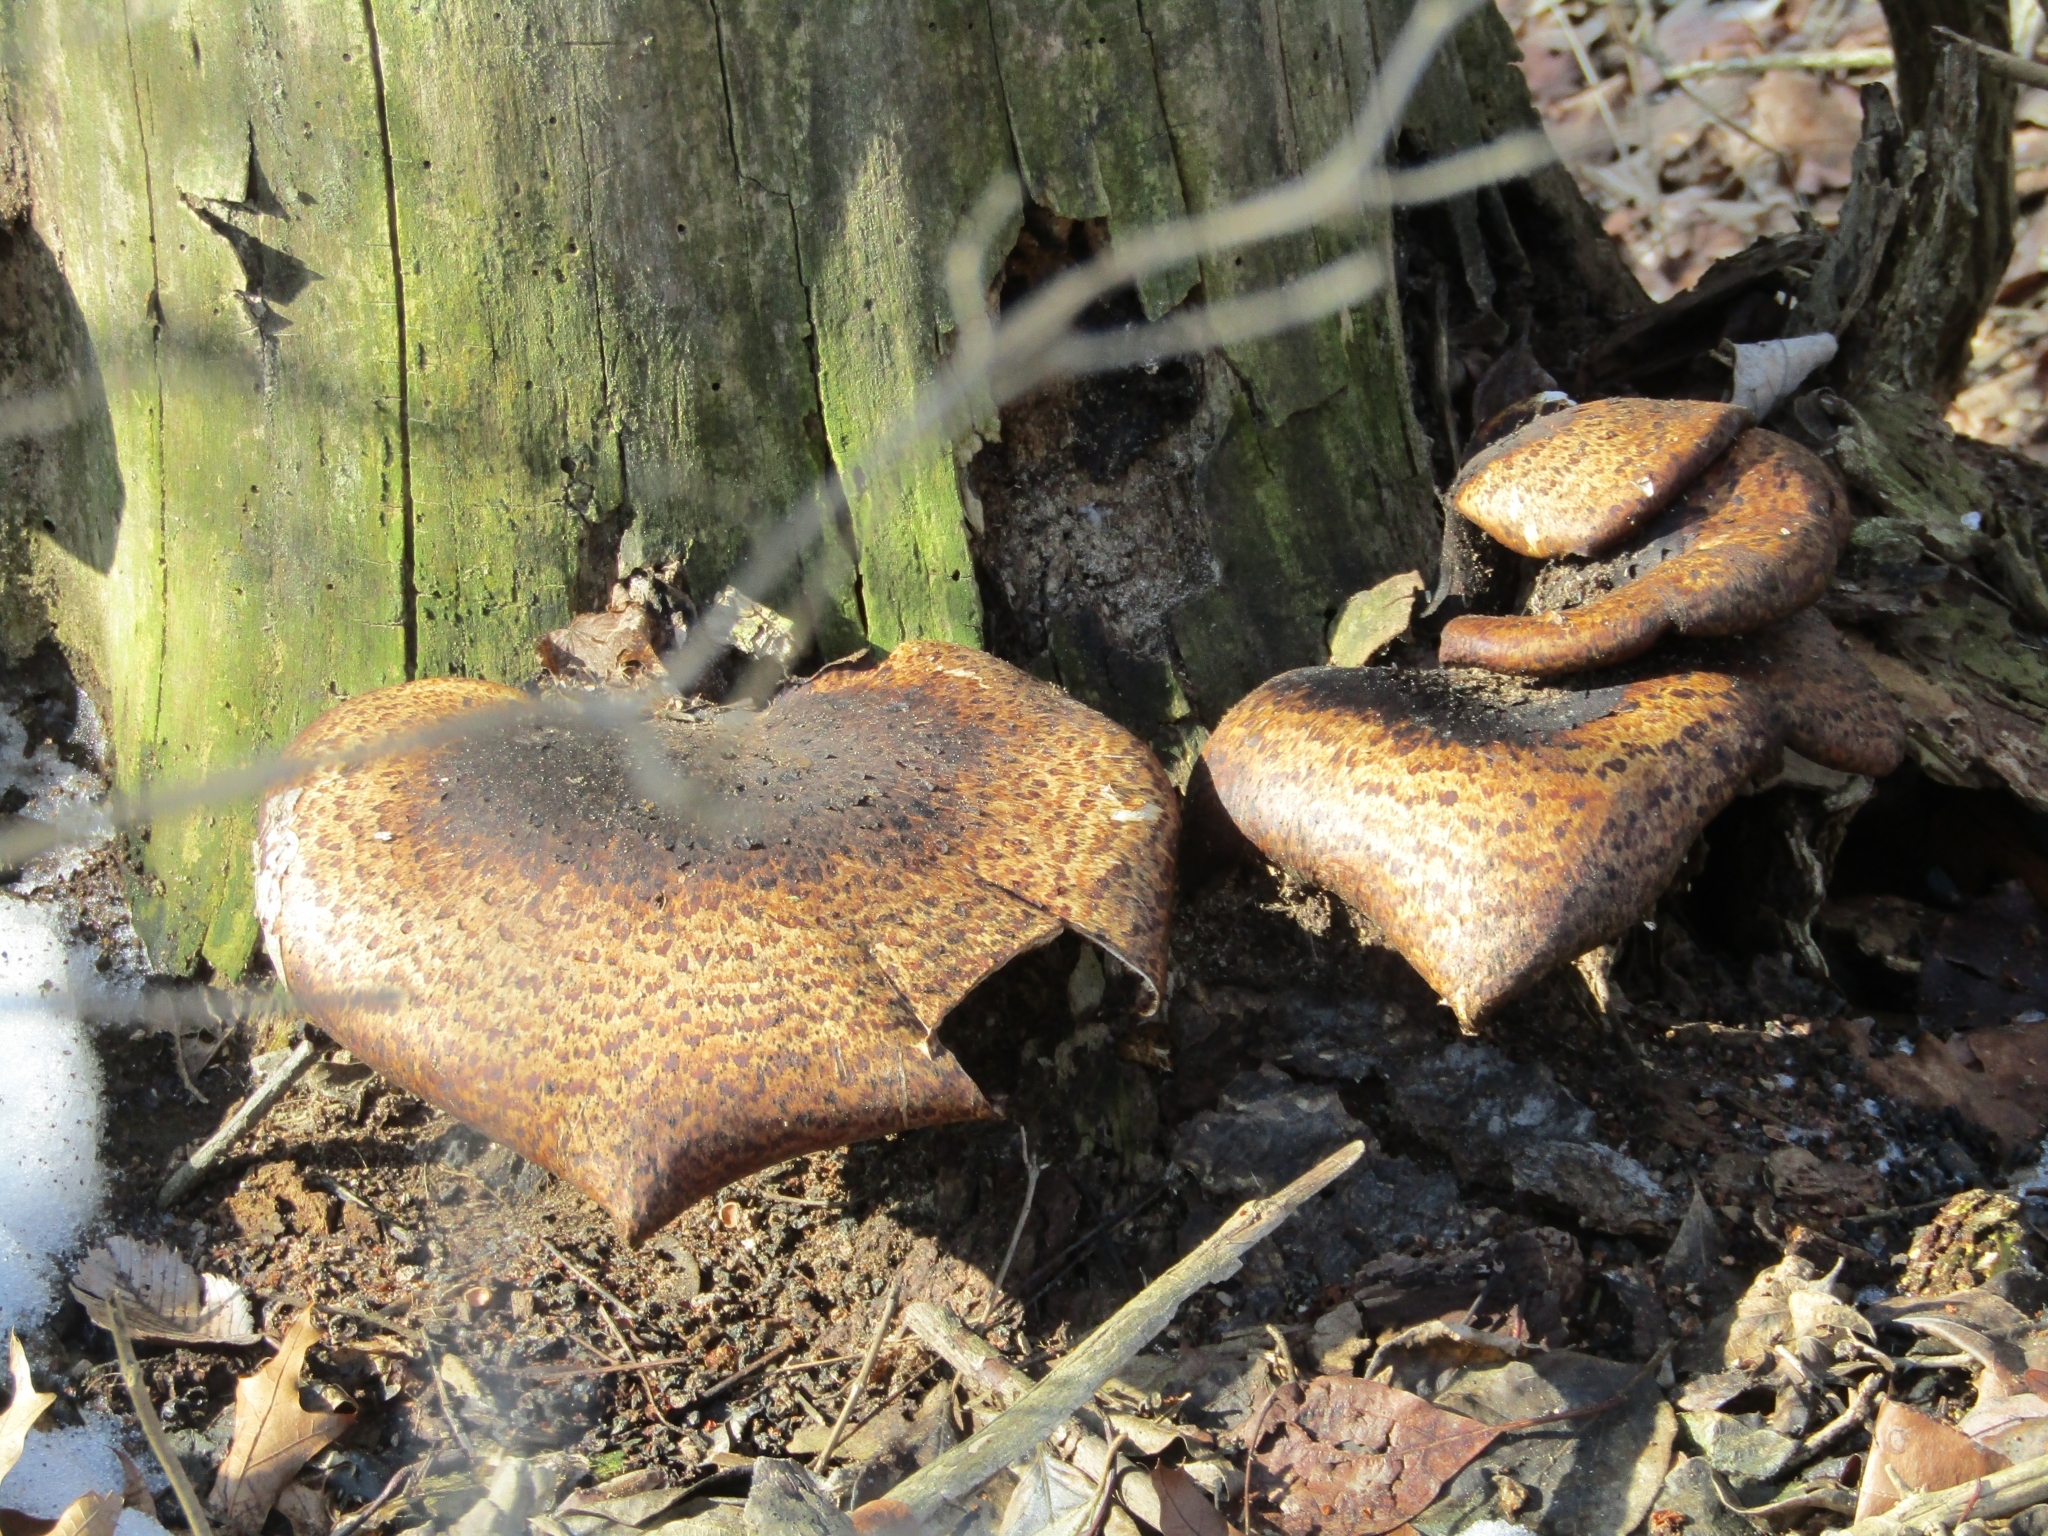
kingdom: Fungi
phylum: Basidiomycota
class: Agaricomycetes
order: Polyporales
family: Polyporaceae
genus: Cerioporus
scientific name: Cerioporus squamosus
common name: Dryad's saddle
